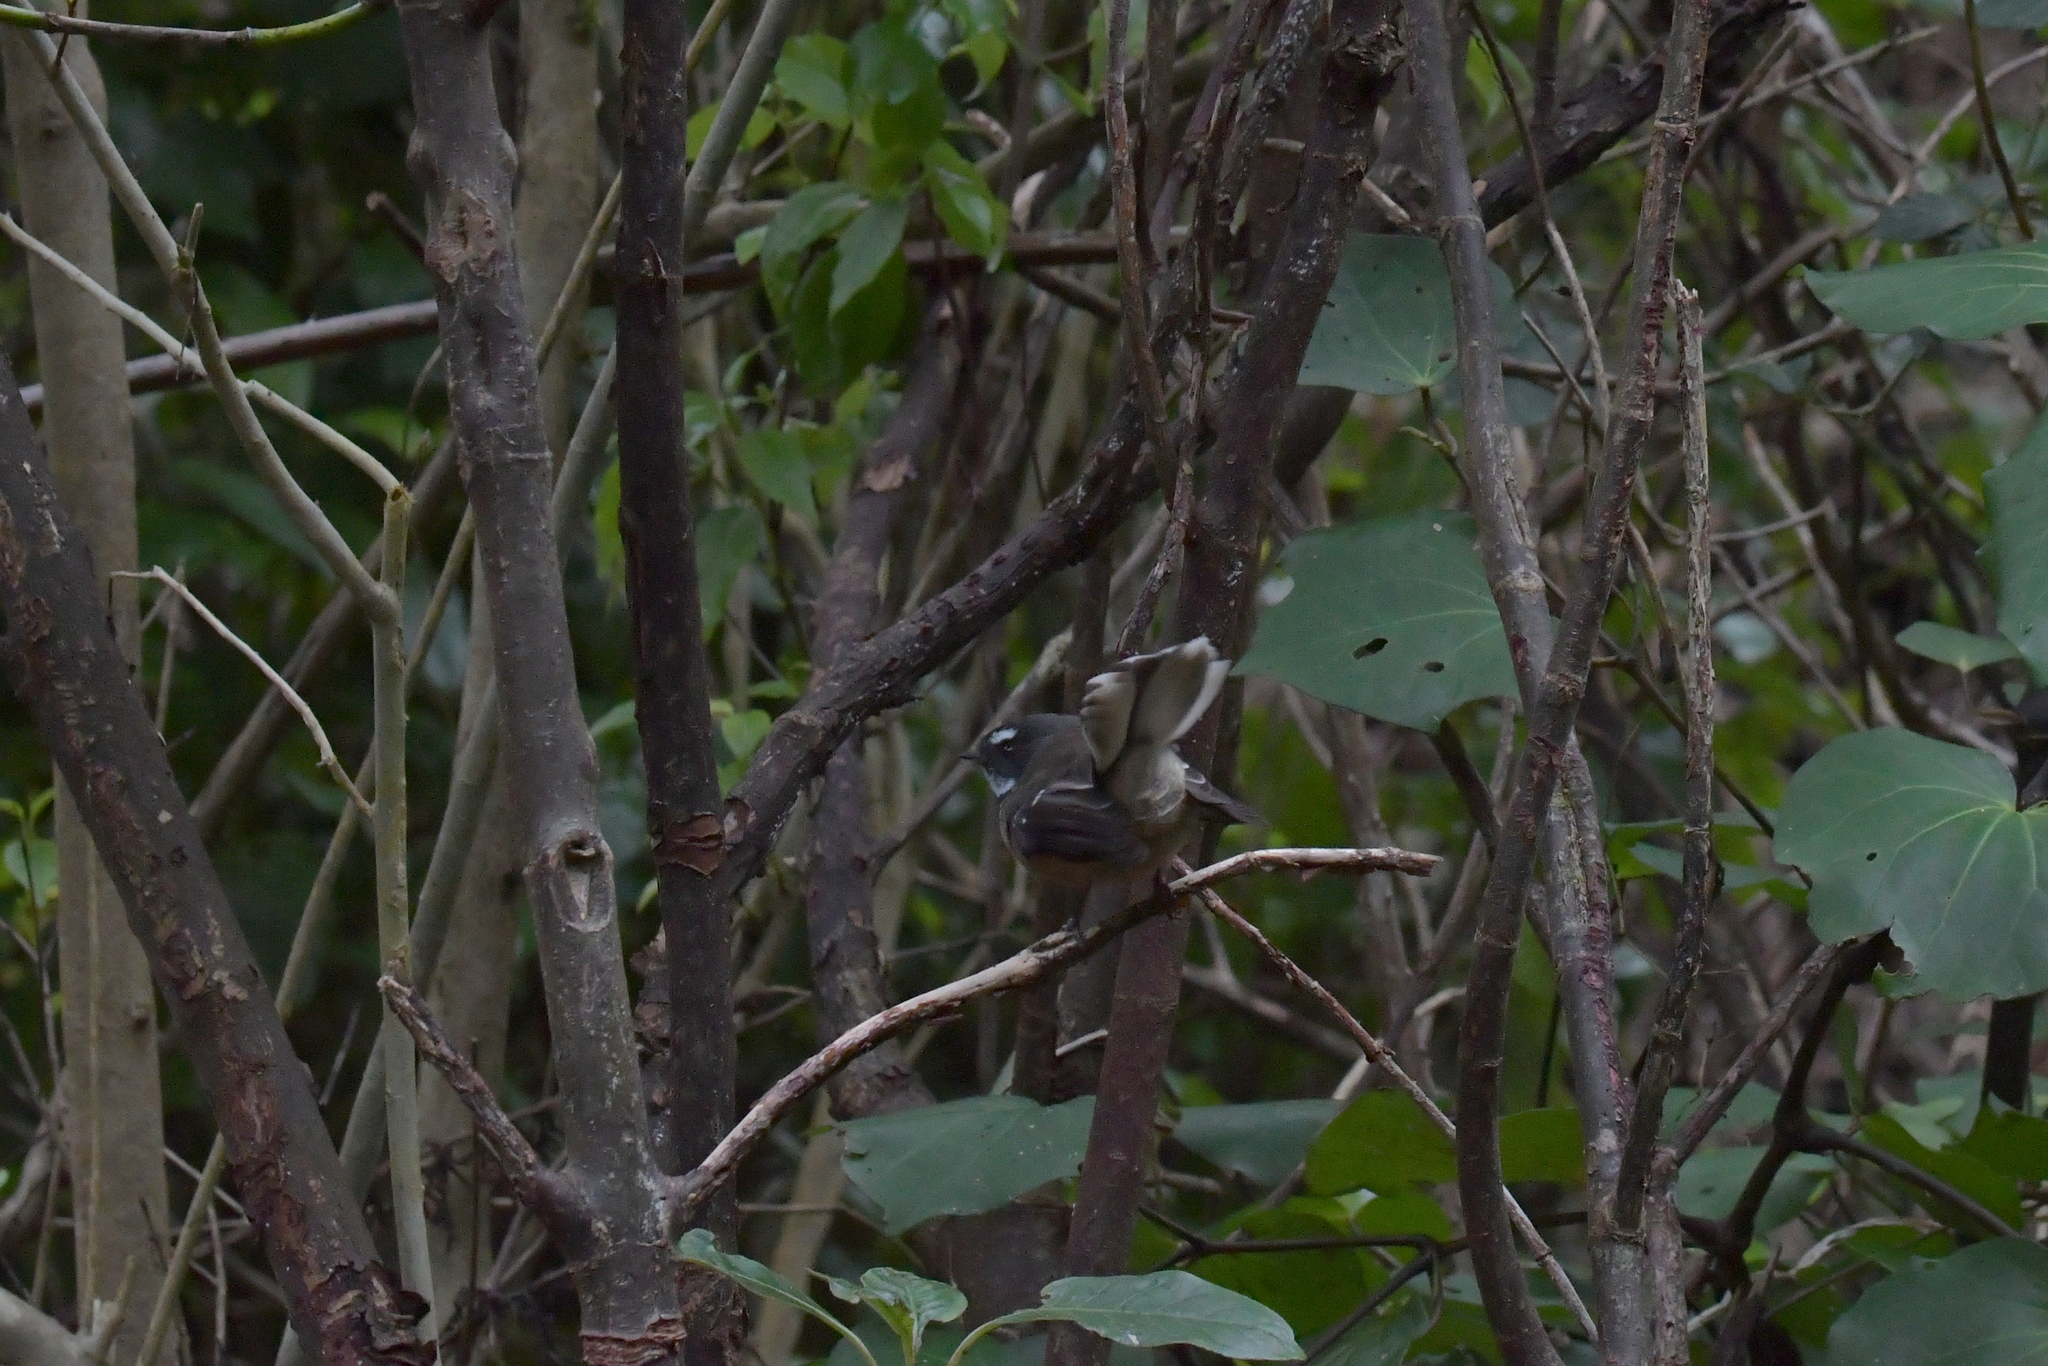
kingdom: Animalia
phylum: Chordata
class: Aves
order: Passeriformes
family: Rhipiduridae
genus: Rhipidura
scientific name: Rhipidura fuliginosa
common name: New zealand fantail
